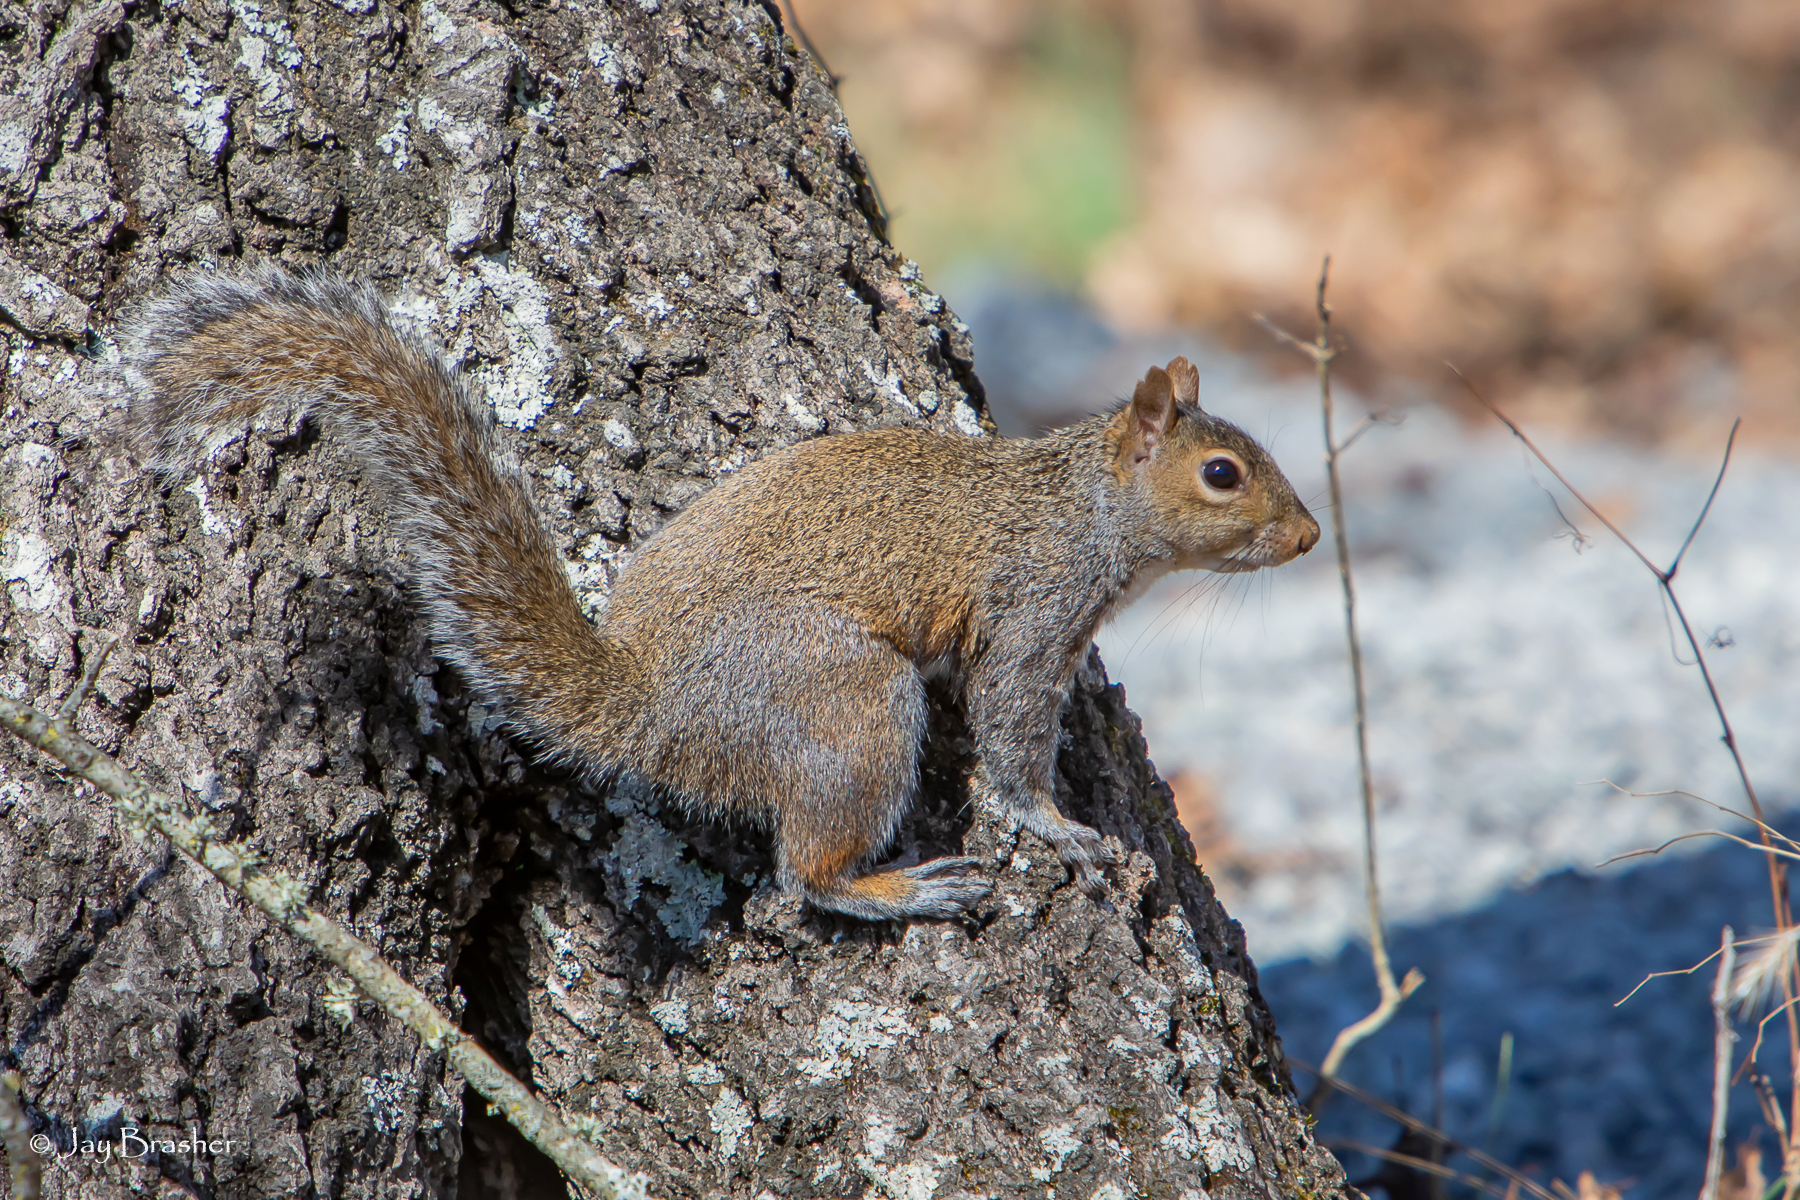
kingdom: Animalia
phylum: Chordata
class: Mammalia
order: Rodentia
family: Sciuridae
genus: Sciurus
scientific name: Sciurus carolinensis
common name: Eastern gray squirrel
